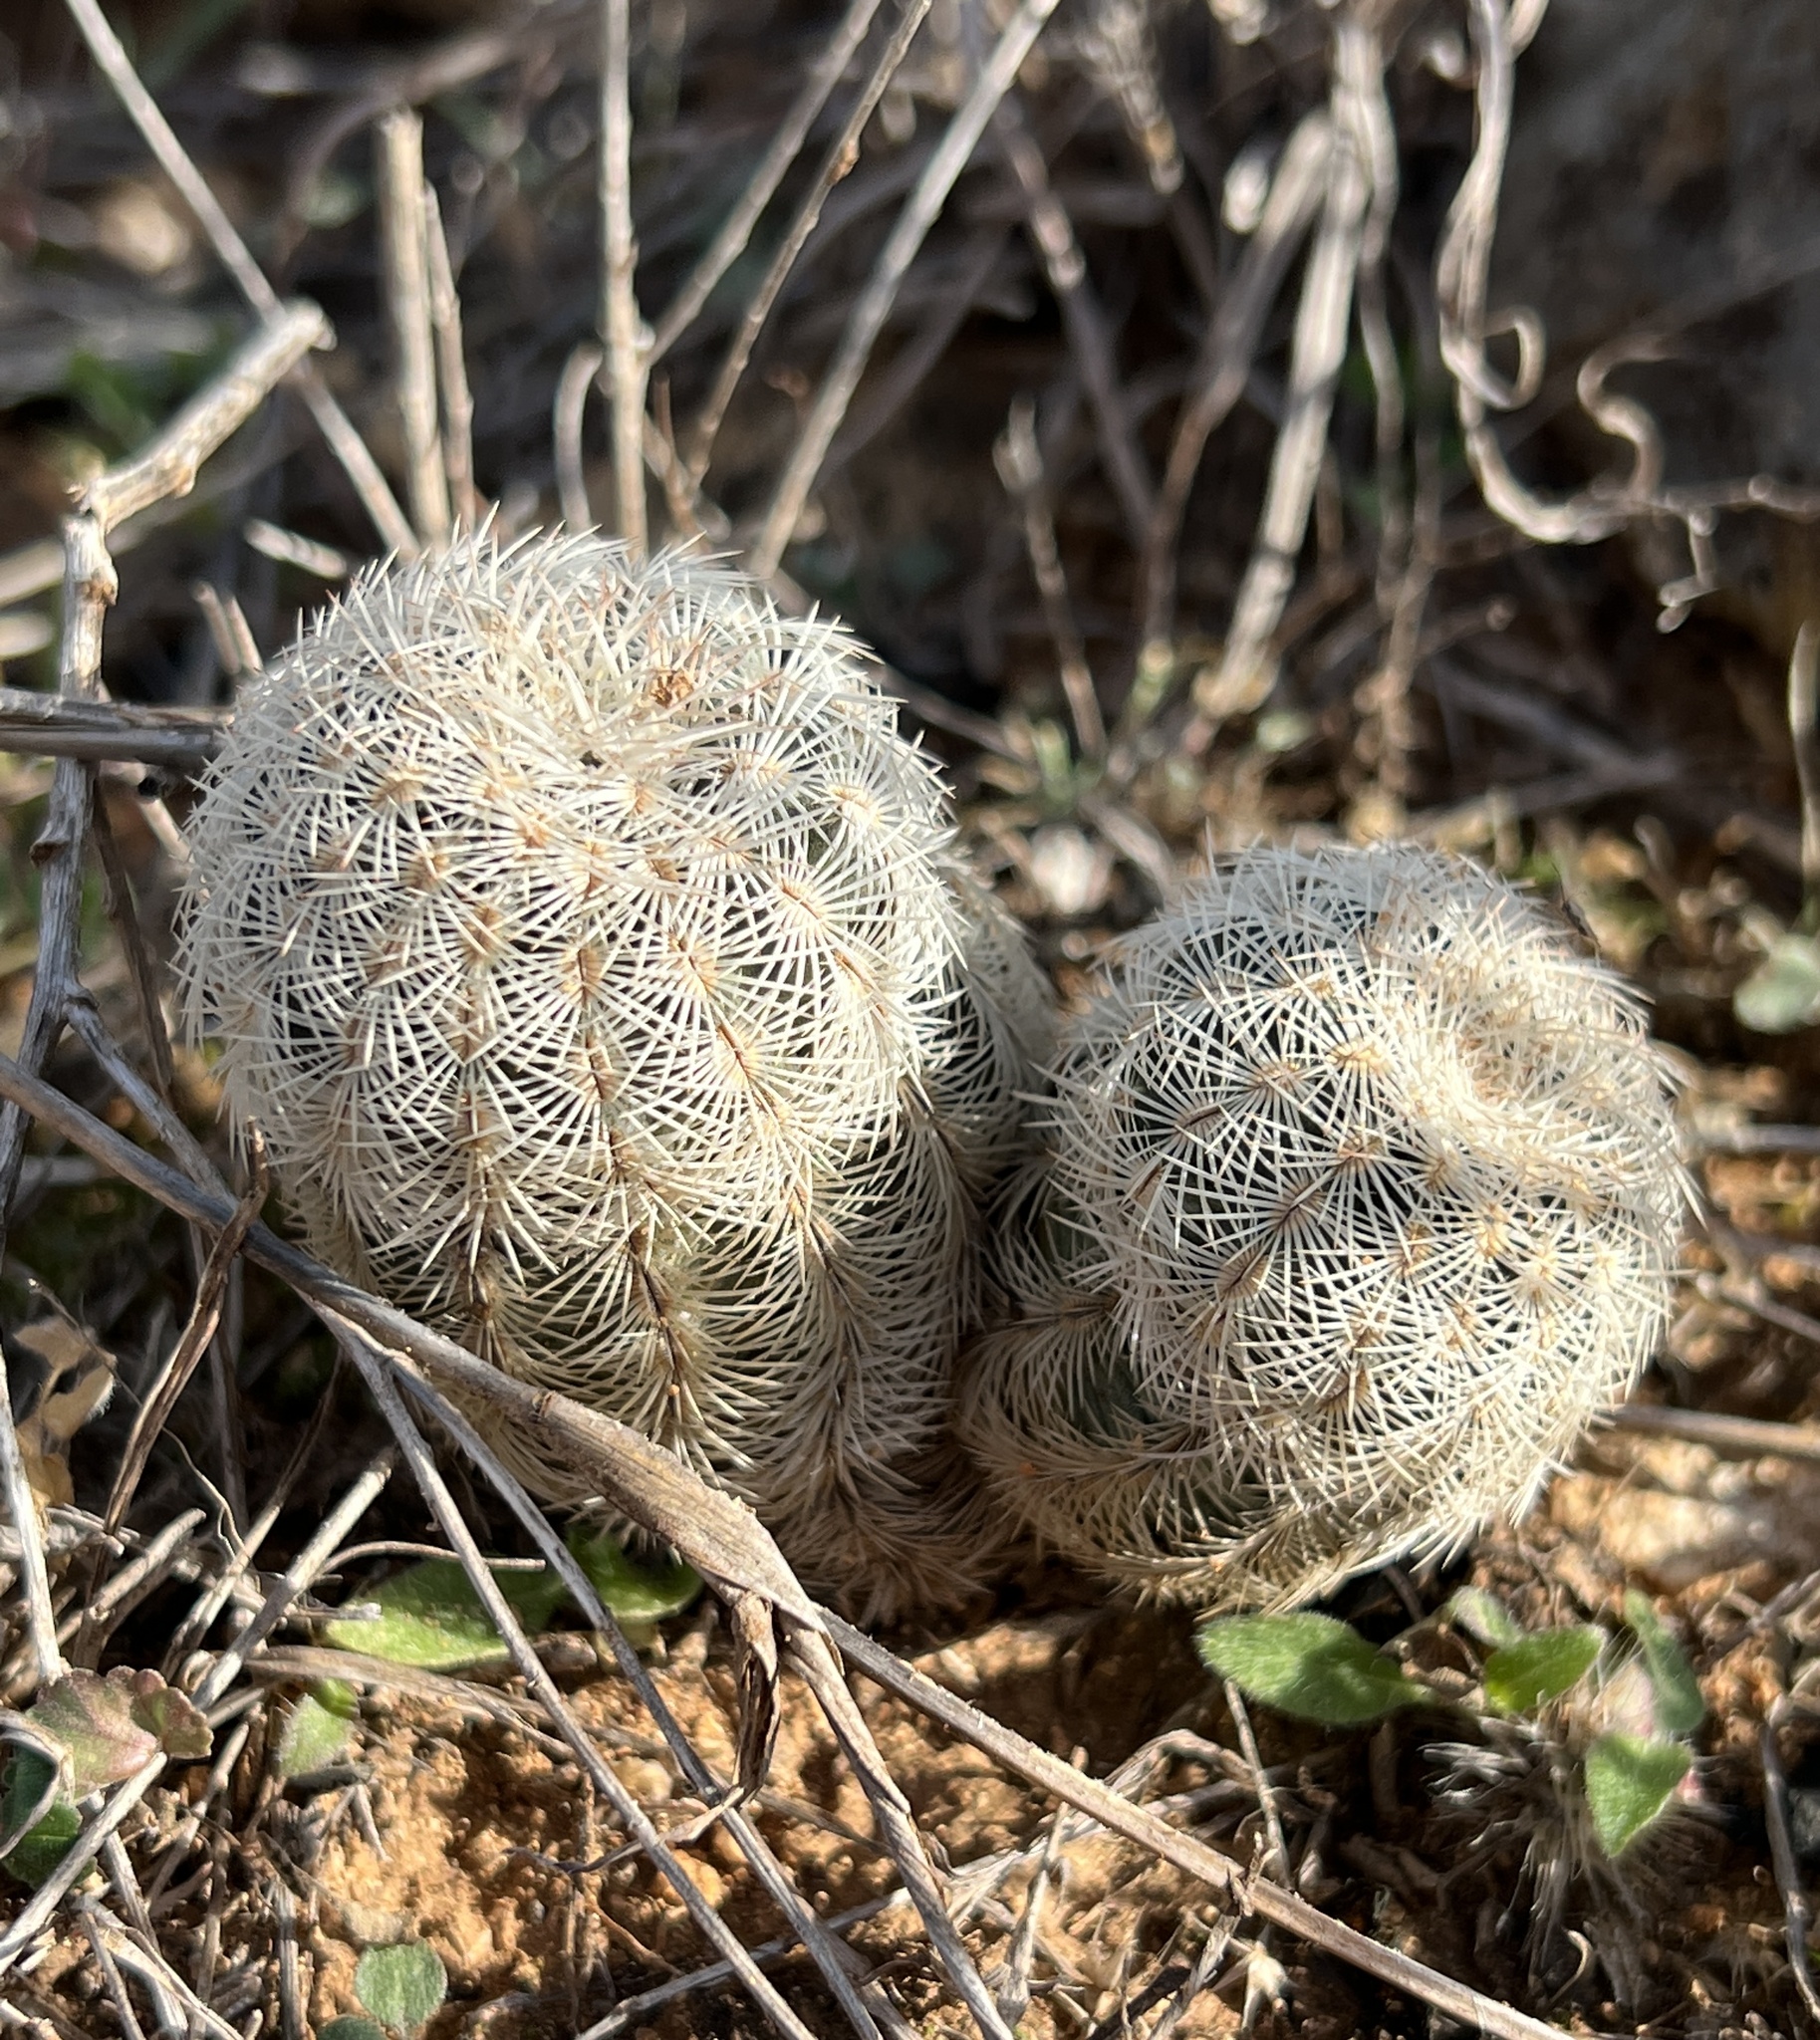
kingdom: Plantae
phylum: Tracheophyta
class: Magnoliopsida
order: Caryophyllales
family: Cactaceae
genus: Echinocereus
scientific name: Echinocereus reichenbachii
